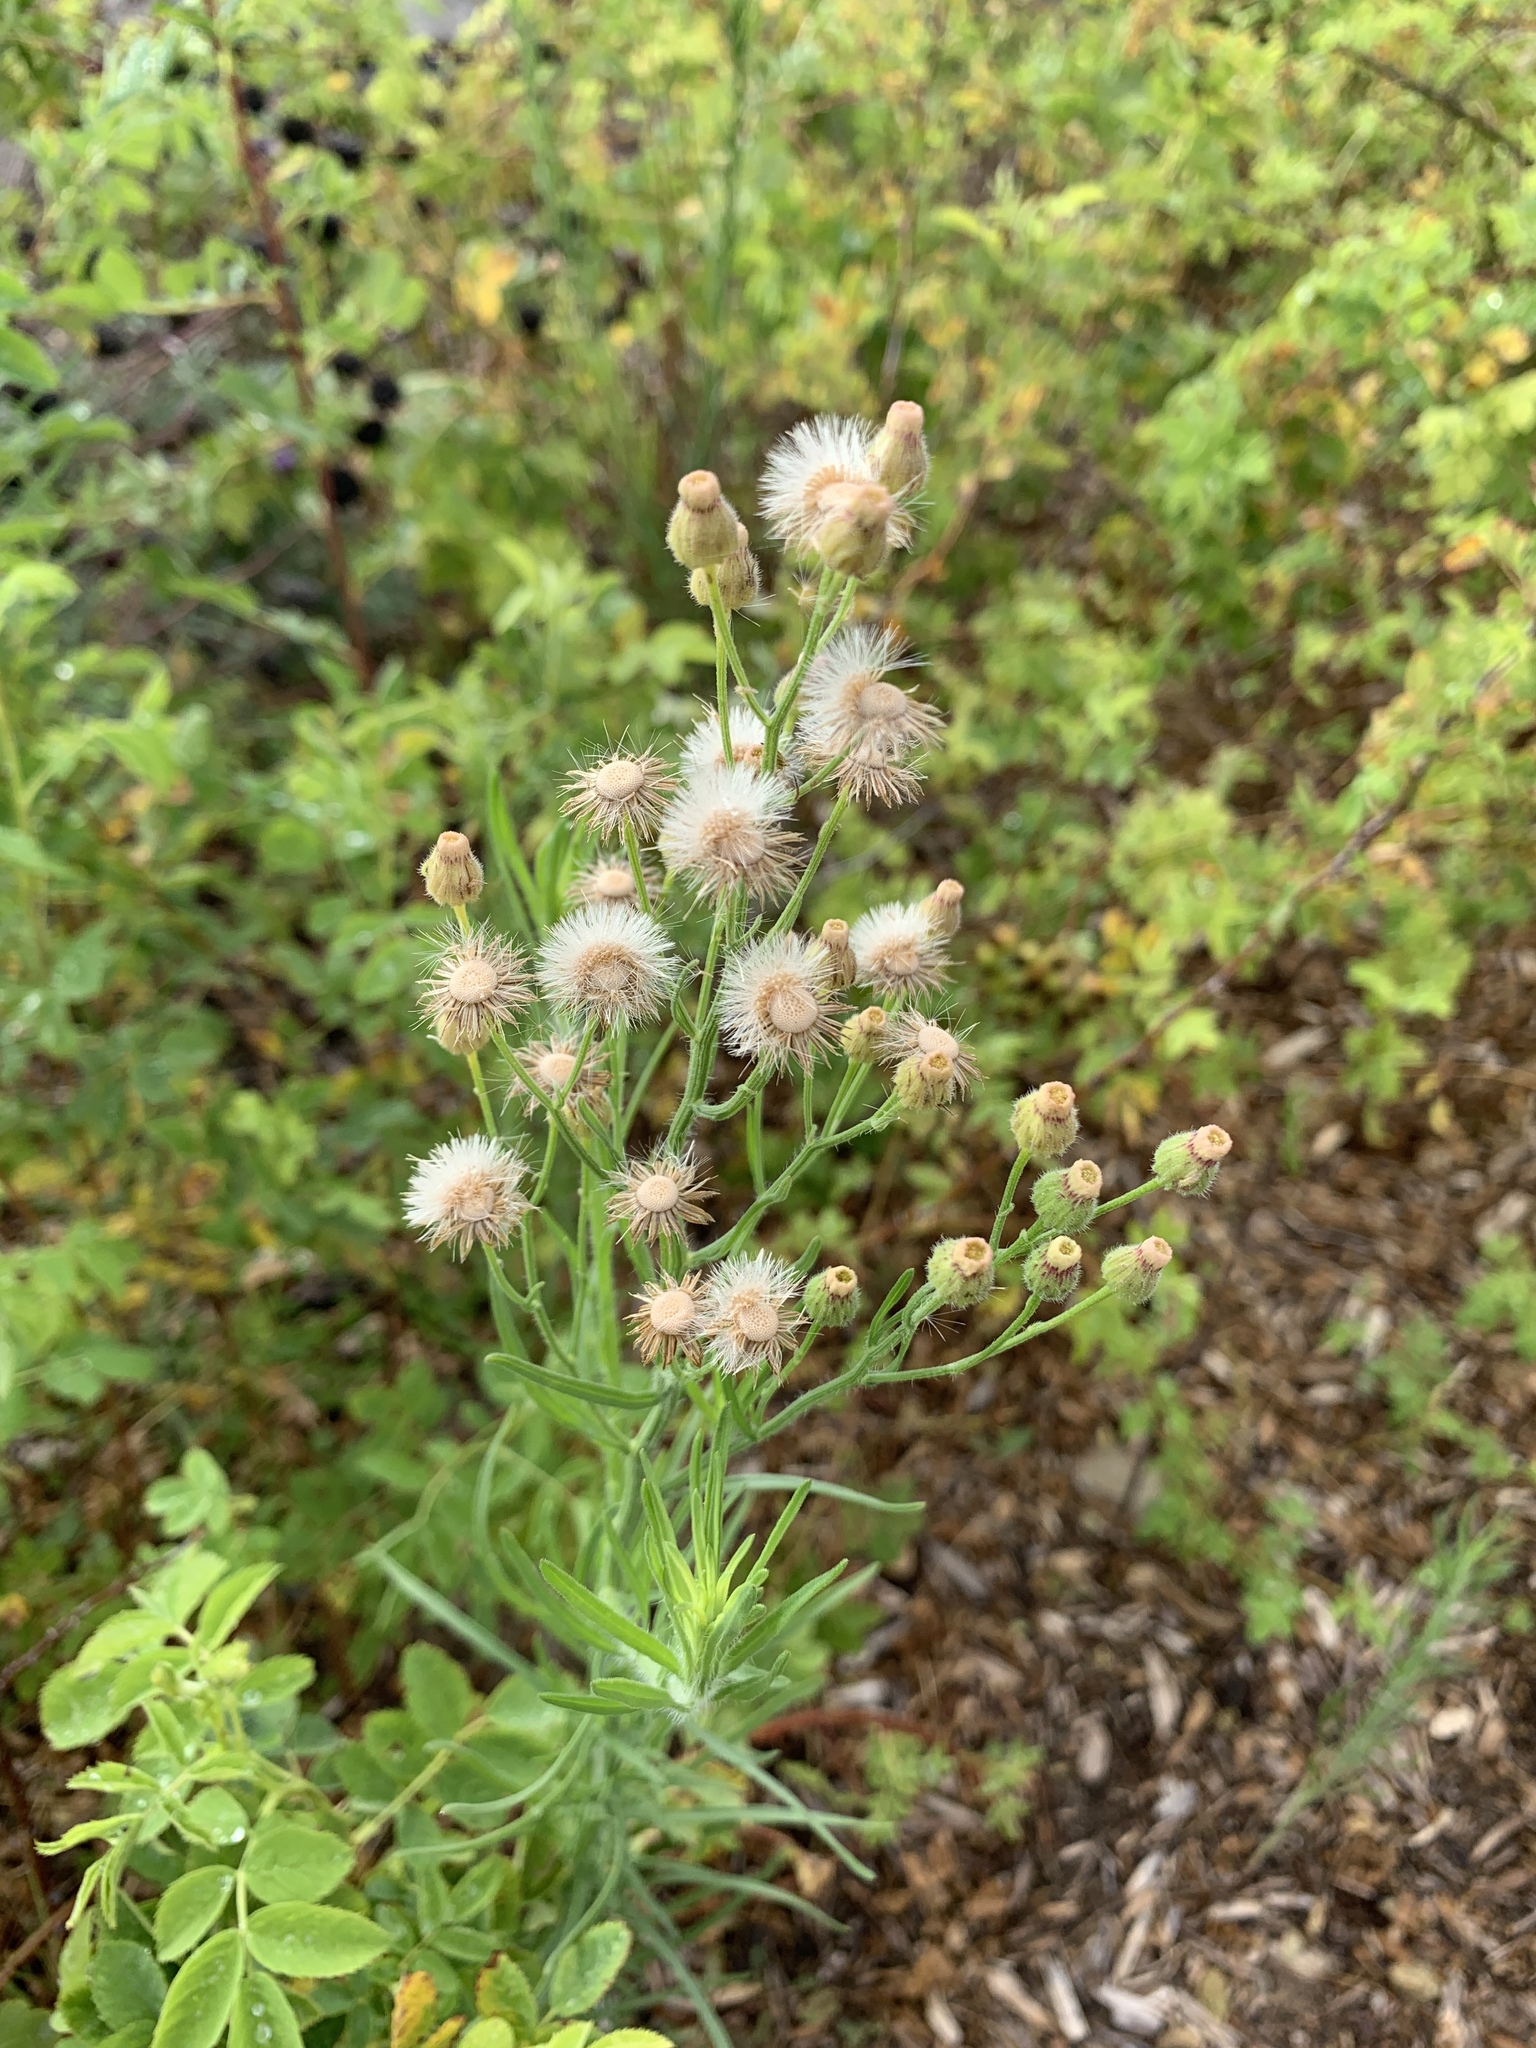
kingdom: Plantae
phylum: Tracheophyta
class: Magnoliopsida
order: Asterales
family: Asteraceae
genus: Erigeron
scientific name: Erigeron bonariensis
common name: Argentine fleabane
